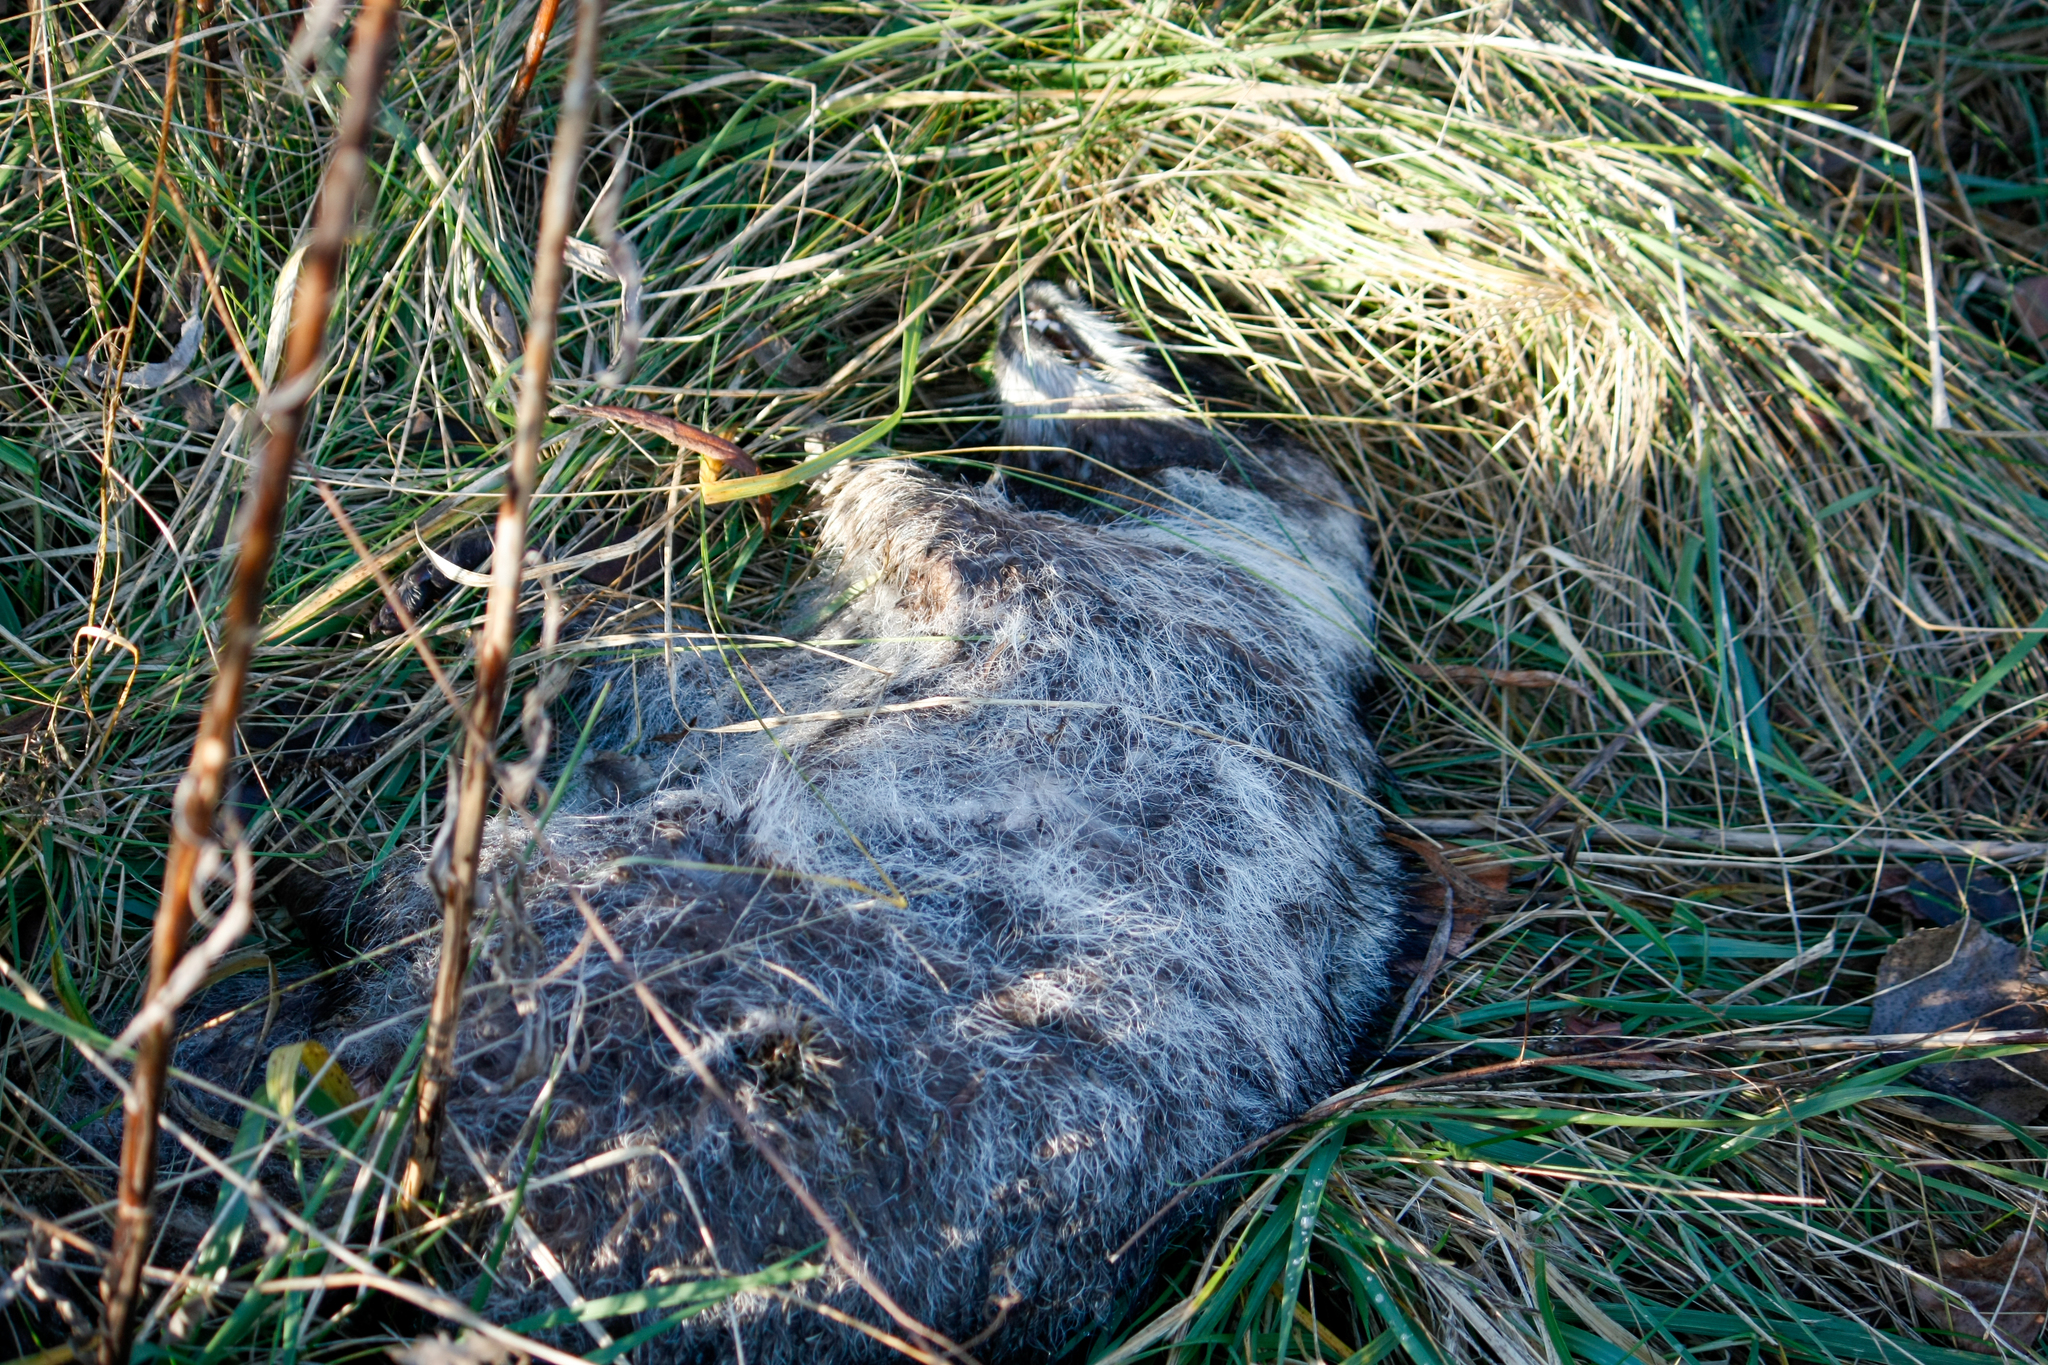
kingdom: Animalia
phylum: Chordata
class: Mammalia
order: Carnivora
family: Procyonidae
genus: Procyon
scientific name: Procyon lotor
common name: Raccoon
